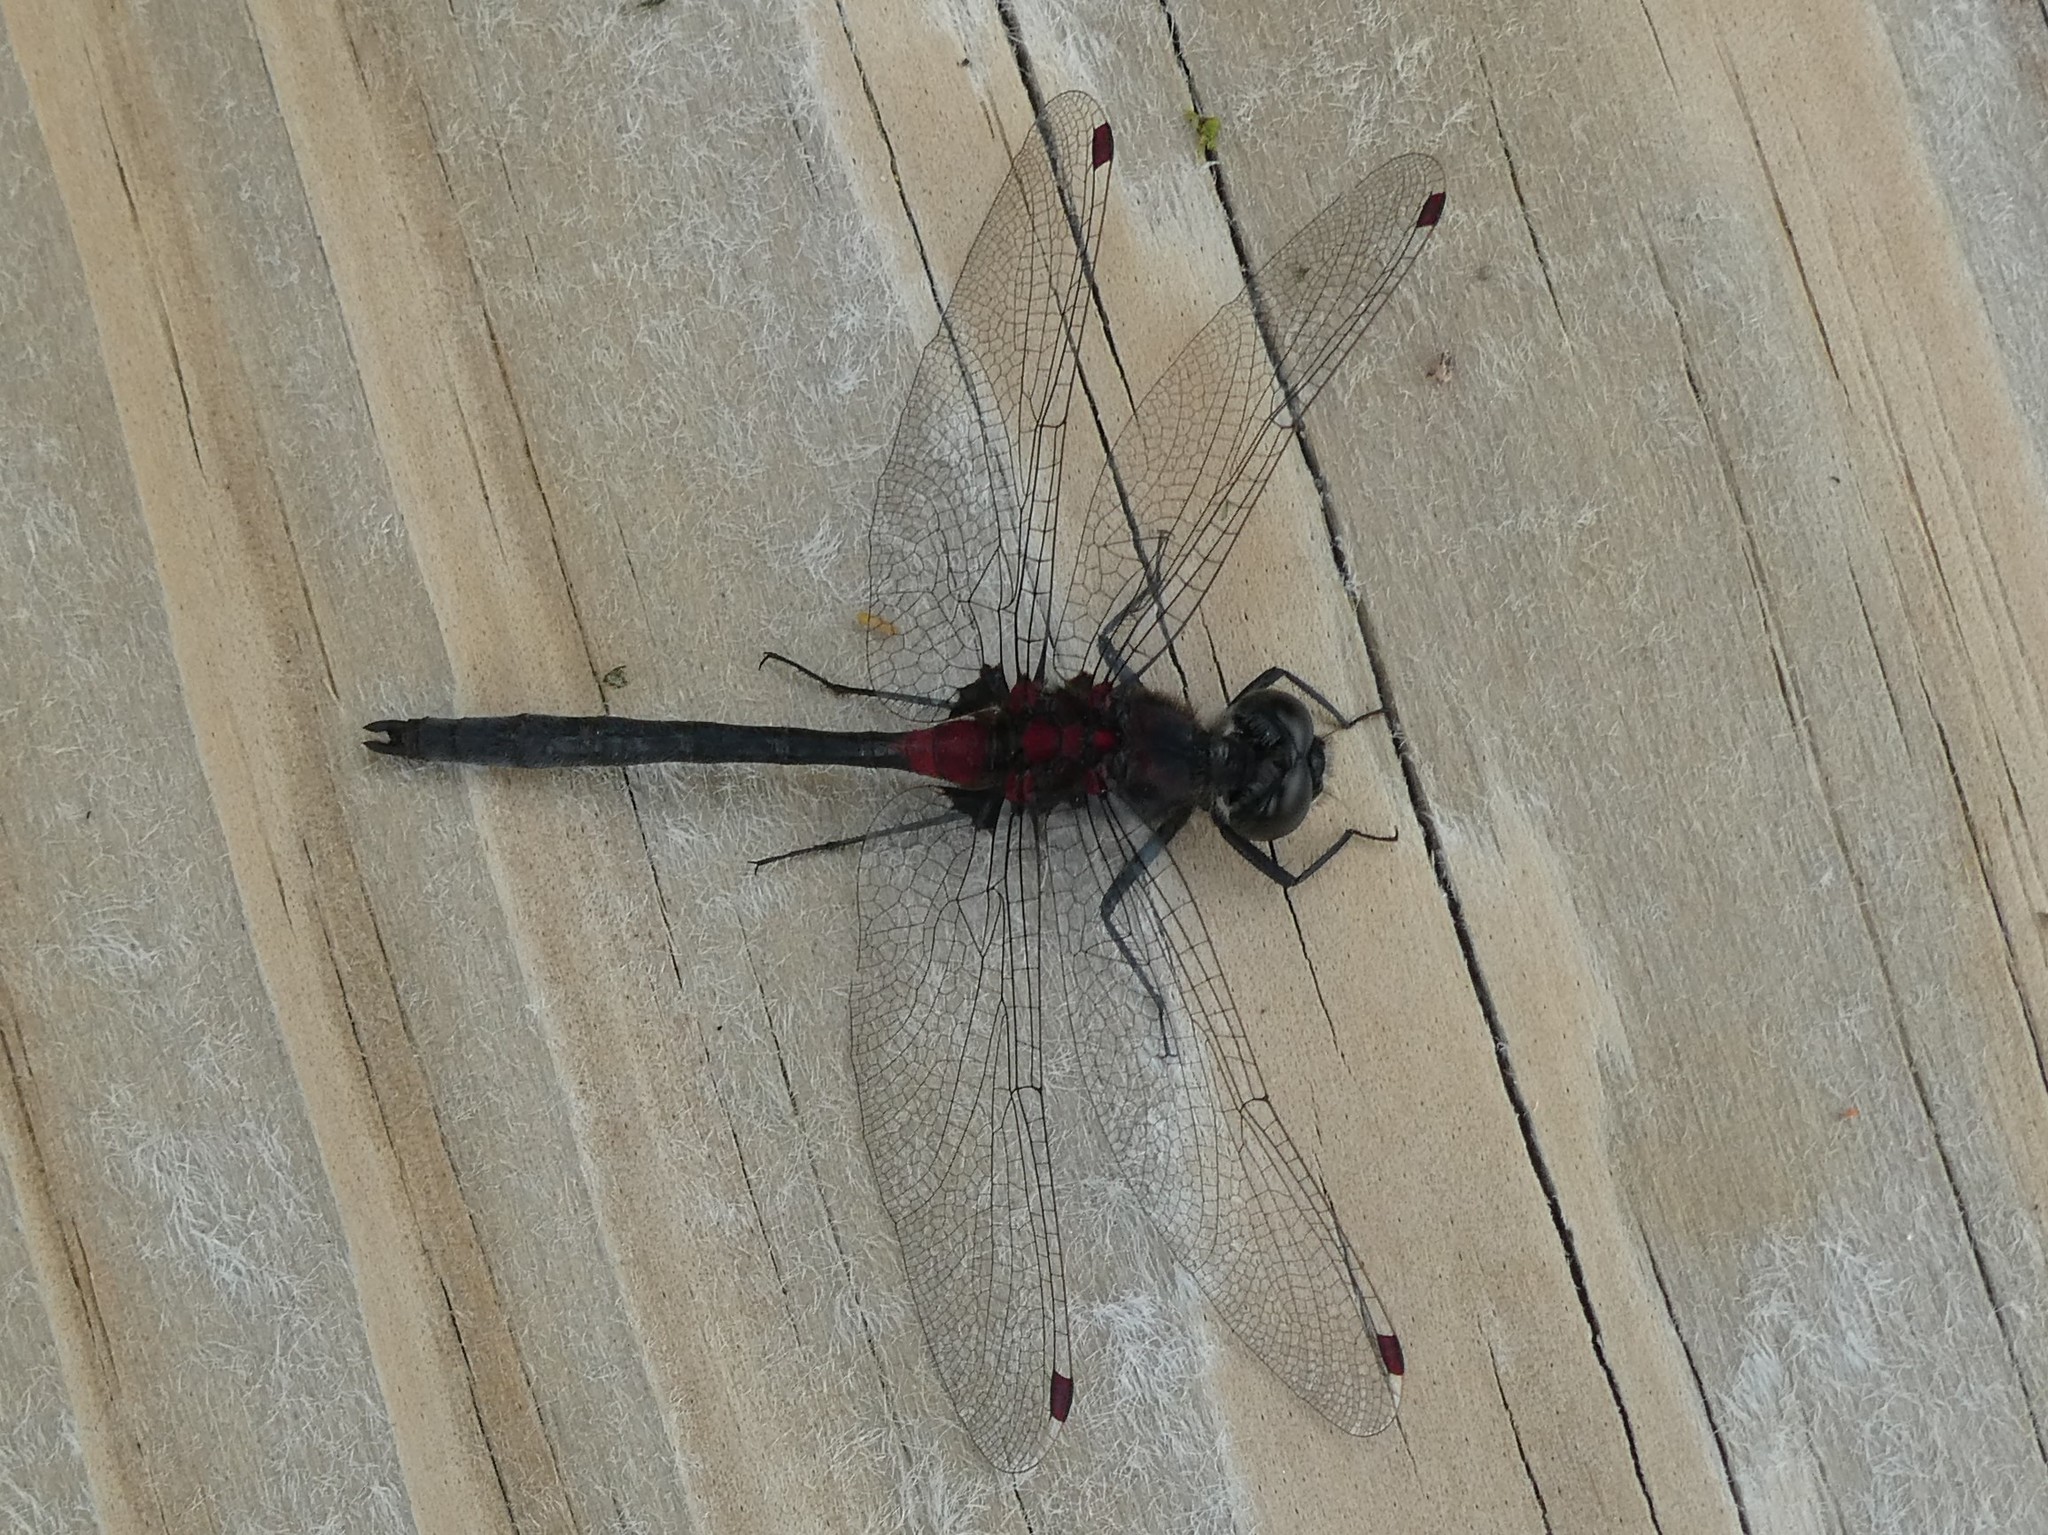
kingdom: Animalia
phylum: Arthropoda
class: Insecta
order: Odonata
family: Libellulidae
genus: Leucorrhinia
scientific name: Leucorrhinia glacialis
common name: Crimson-ringed whiteface
